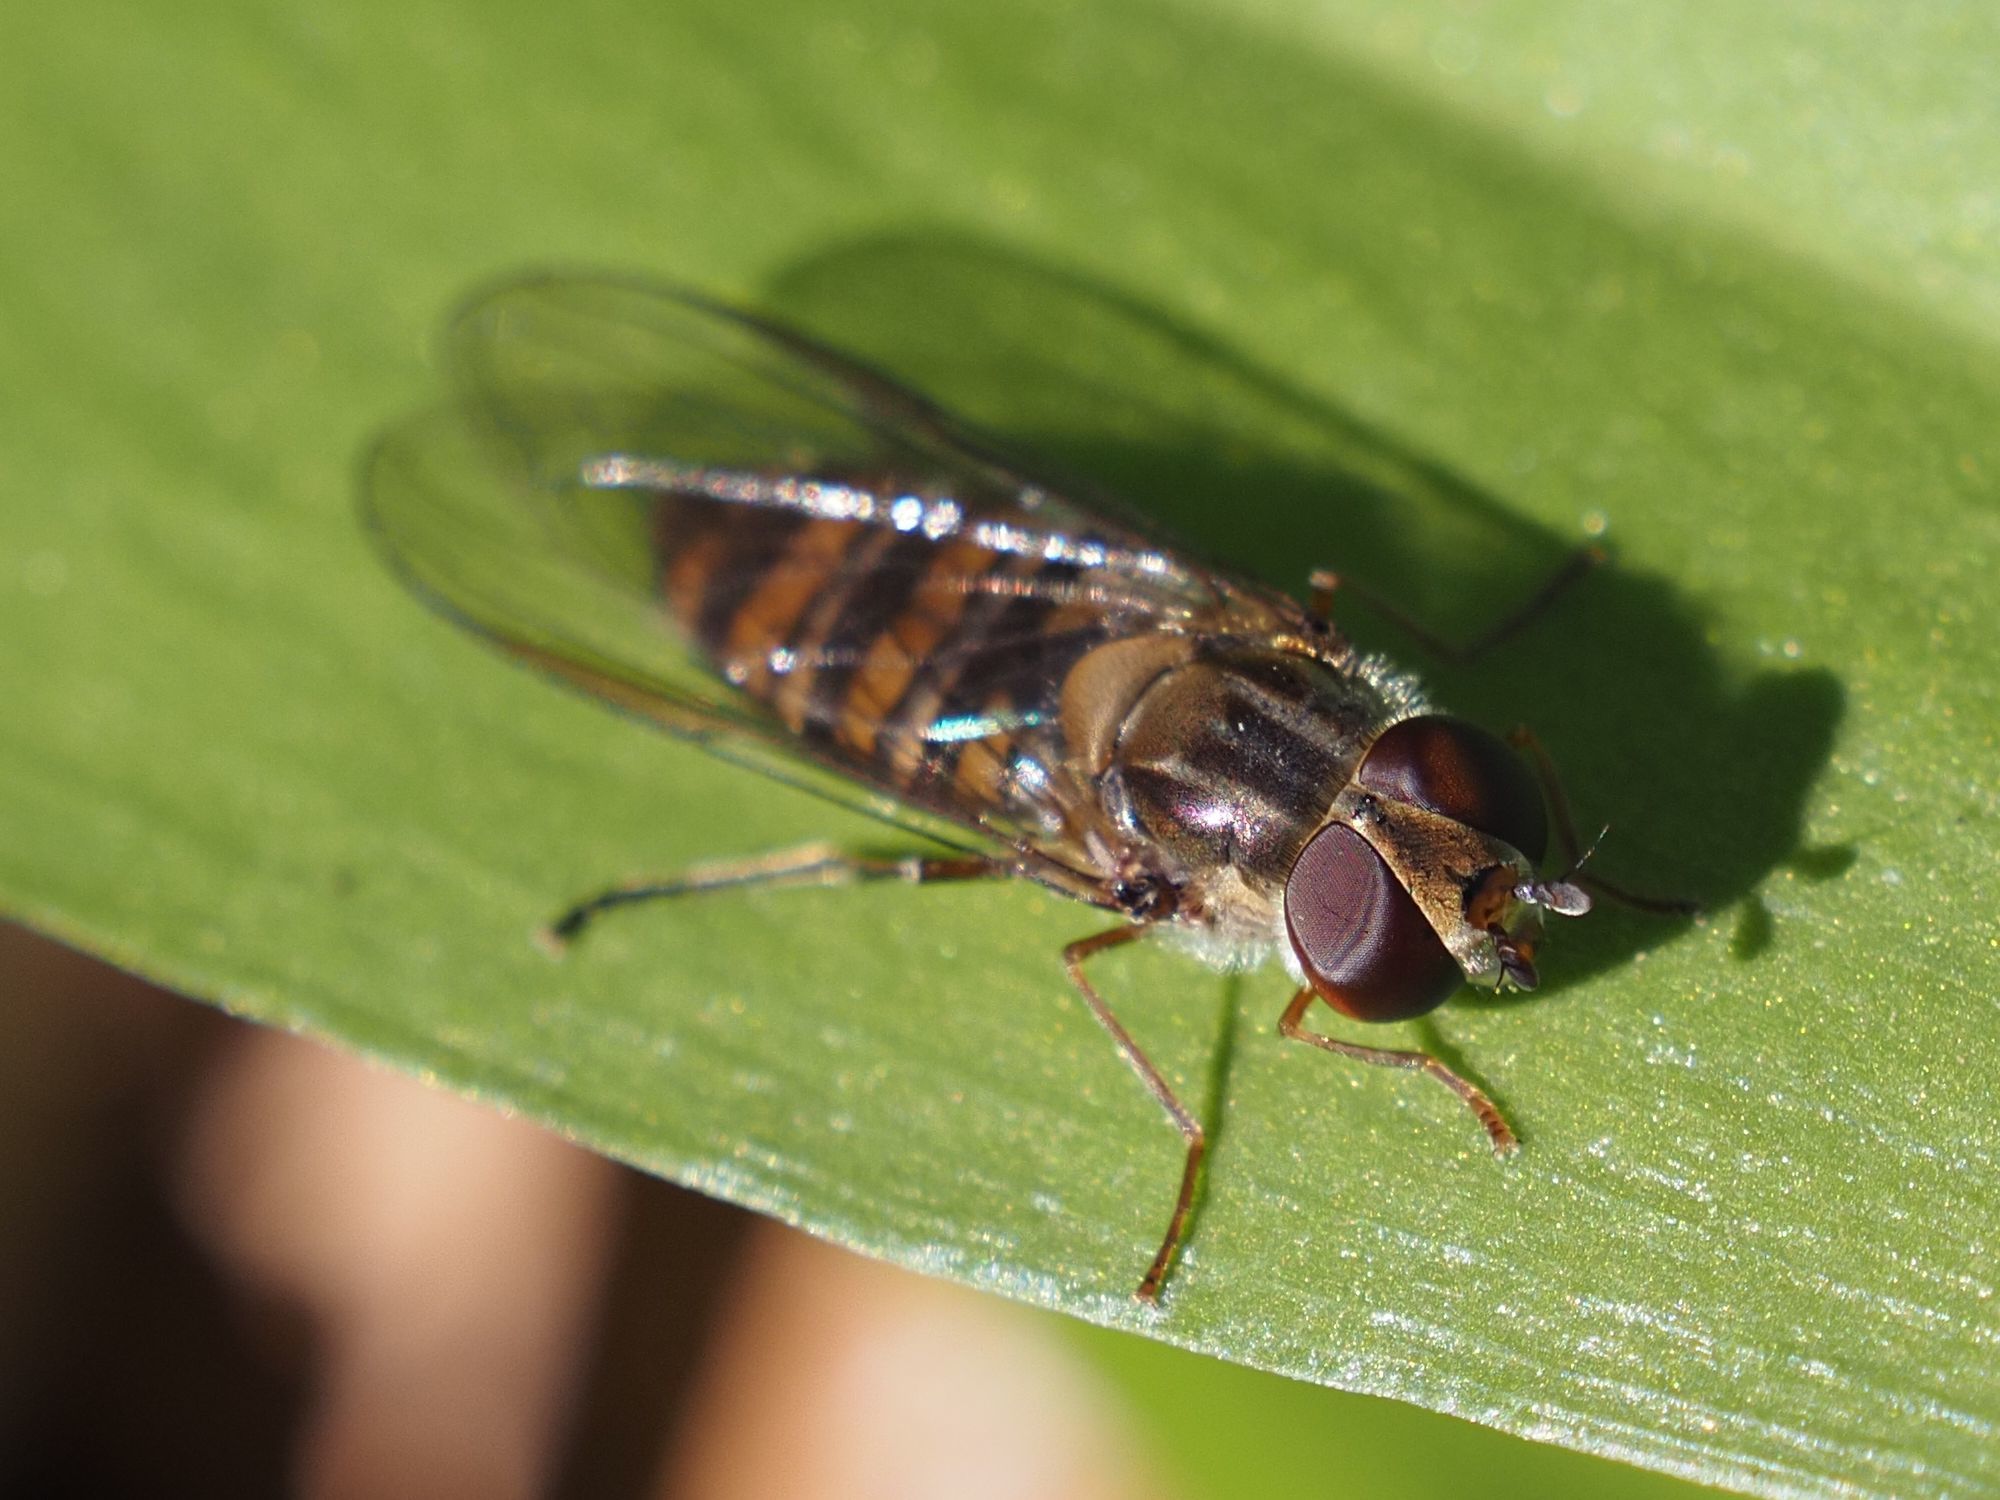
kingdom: Animalia
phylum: Arthropoda
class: Insecta
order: Diptera
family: Syrphidae
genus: Episyrphus
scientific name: Episyrphus balteatus
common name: Marmalade hoverfly
